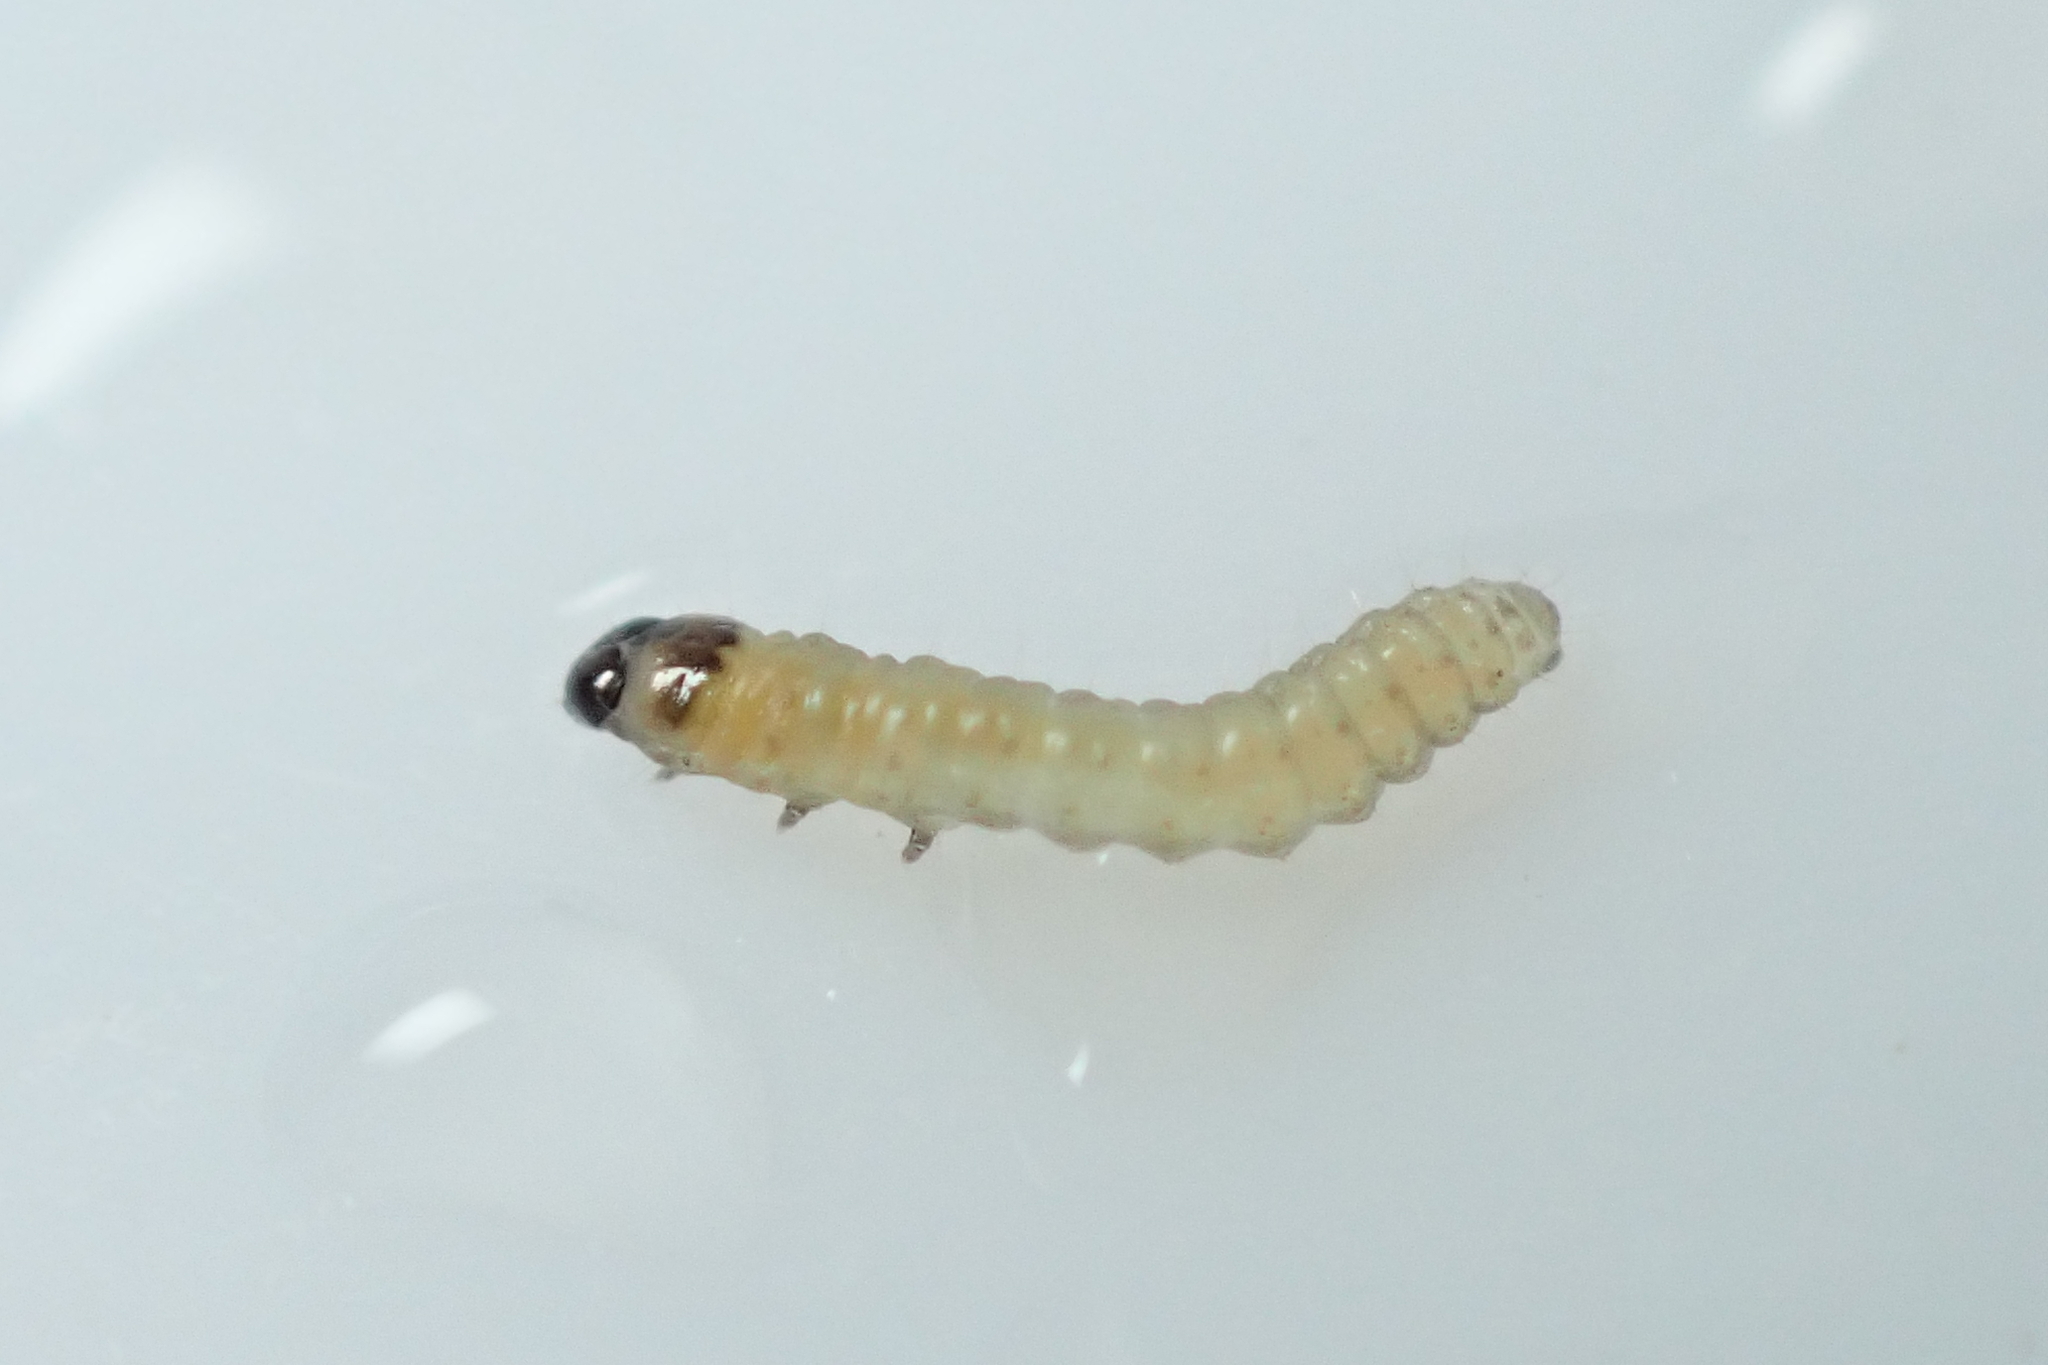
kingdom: Animalia
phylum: Arthropoda
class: Insecta
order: Lepidoptera
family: Tortricidae
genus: Cydia
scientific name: Cydia succedana
